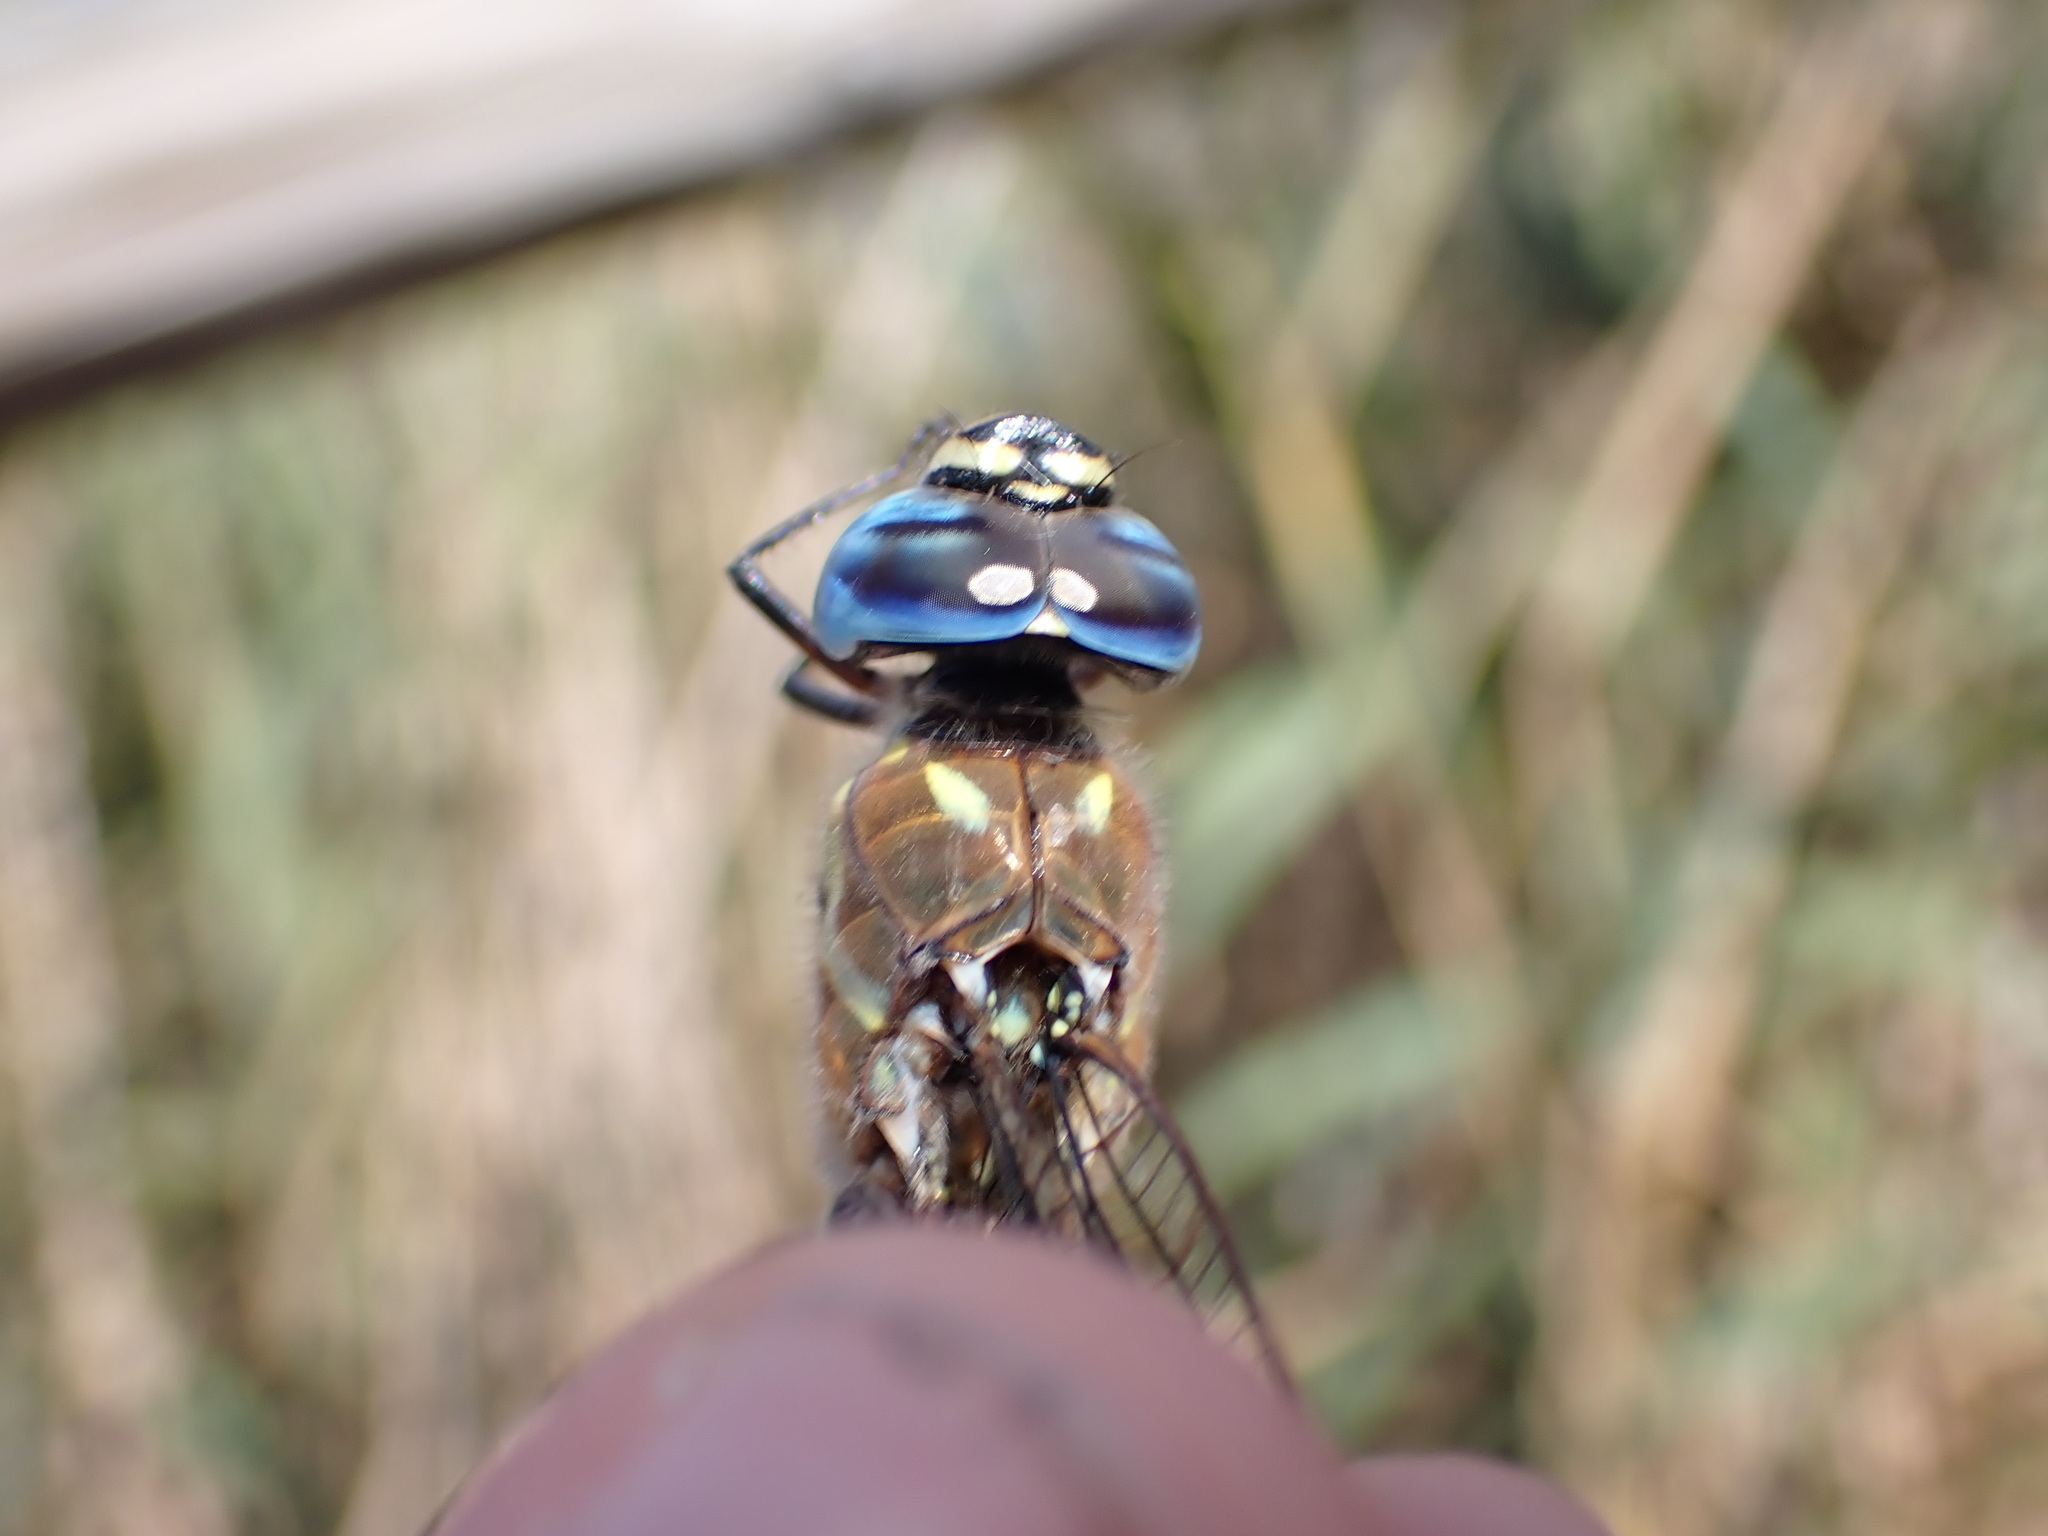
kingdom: Animalia
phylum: Arthropoda
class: Insecta
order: Odonata
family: Aeshnidae
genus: Aeshna
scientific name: Aeshna mixta
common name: Migrant hawker
